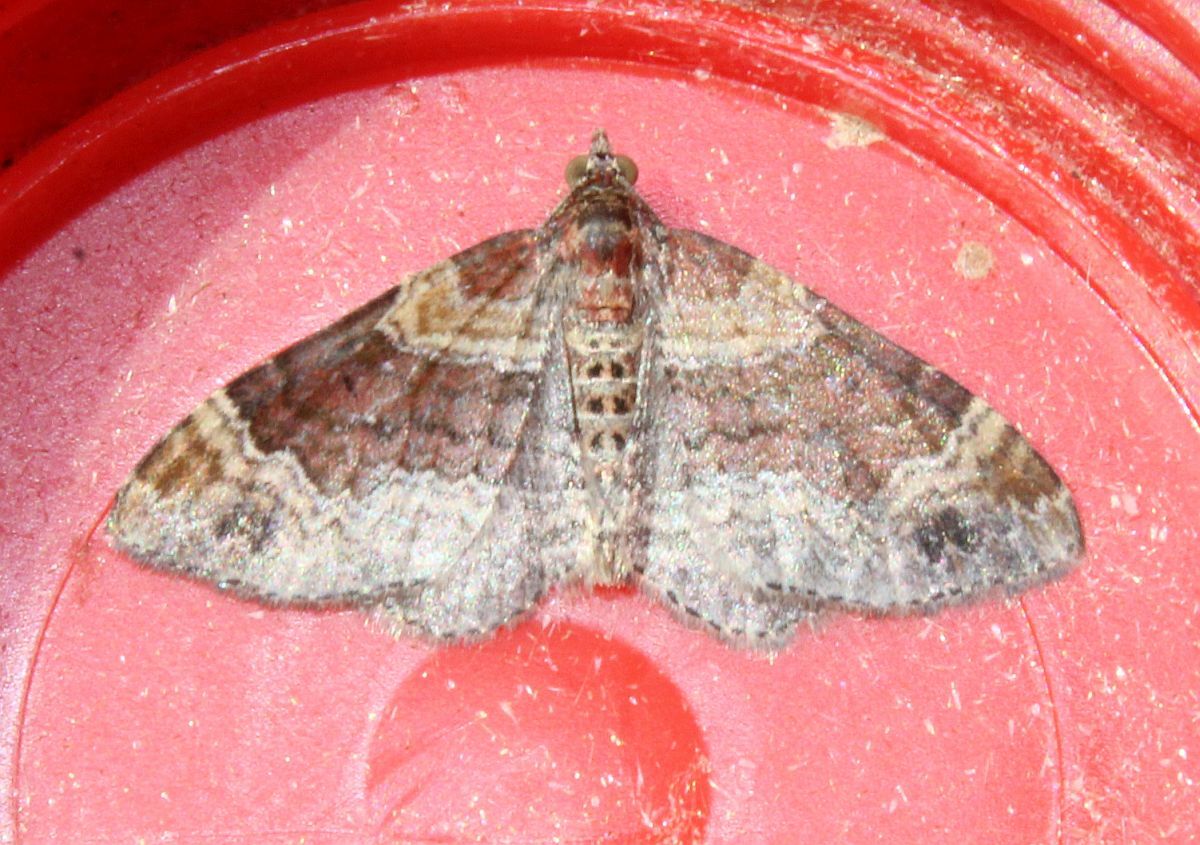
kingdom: Animalia
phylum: Arthropoda
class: Insecta
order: Lepidoptera
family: Geometridae
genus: Xanthorhoe
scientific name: Xanthorhoe spadicearia
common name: Red twin-spot carpet
